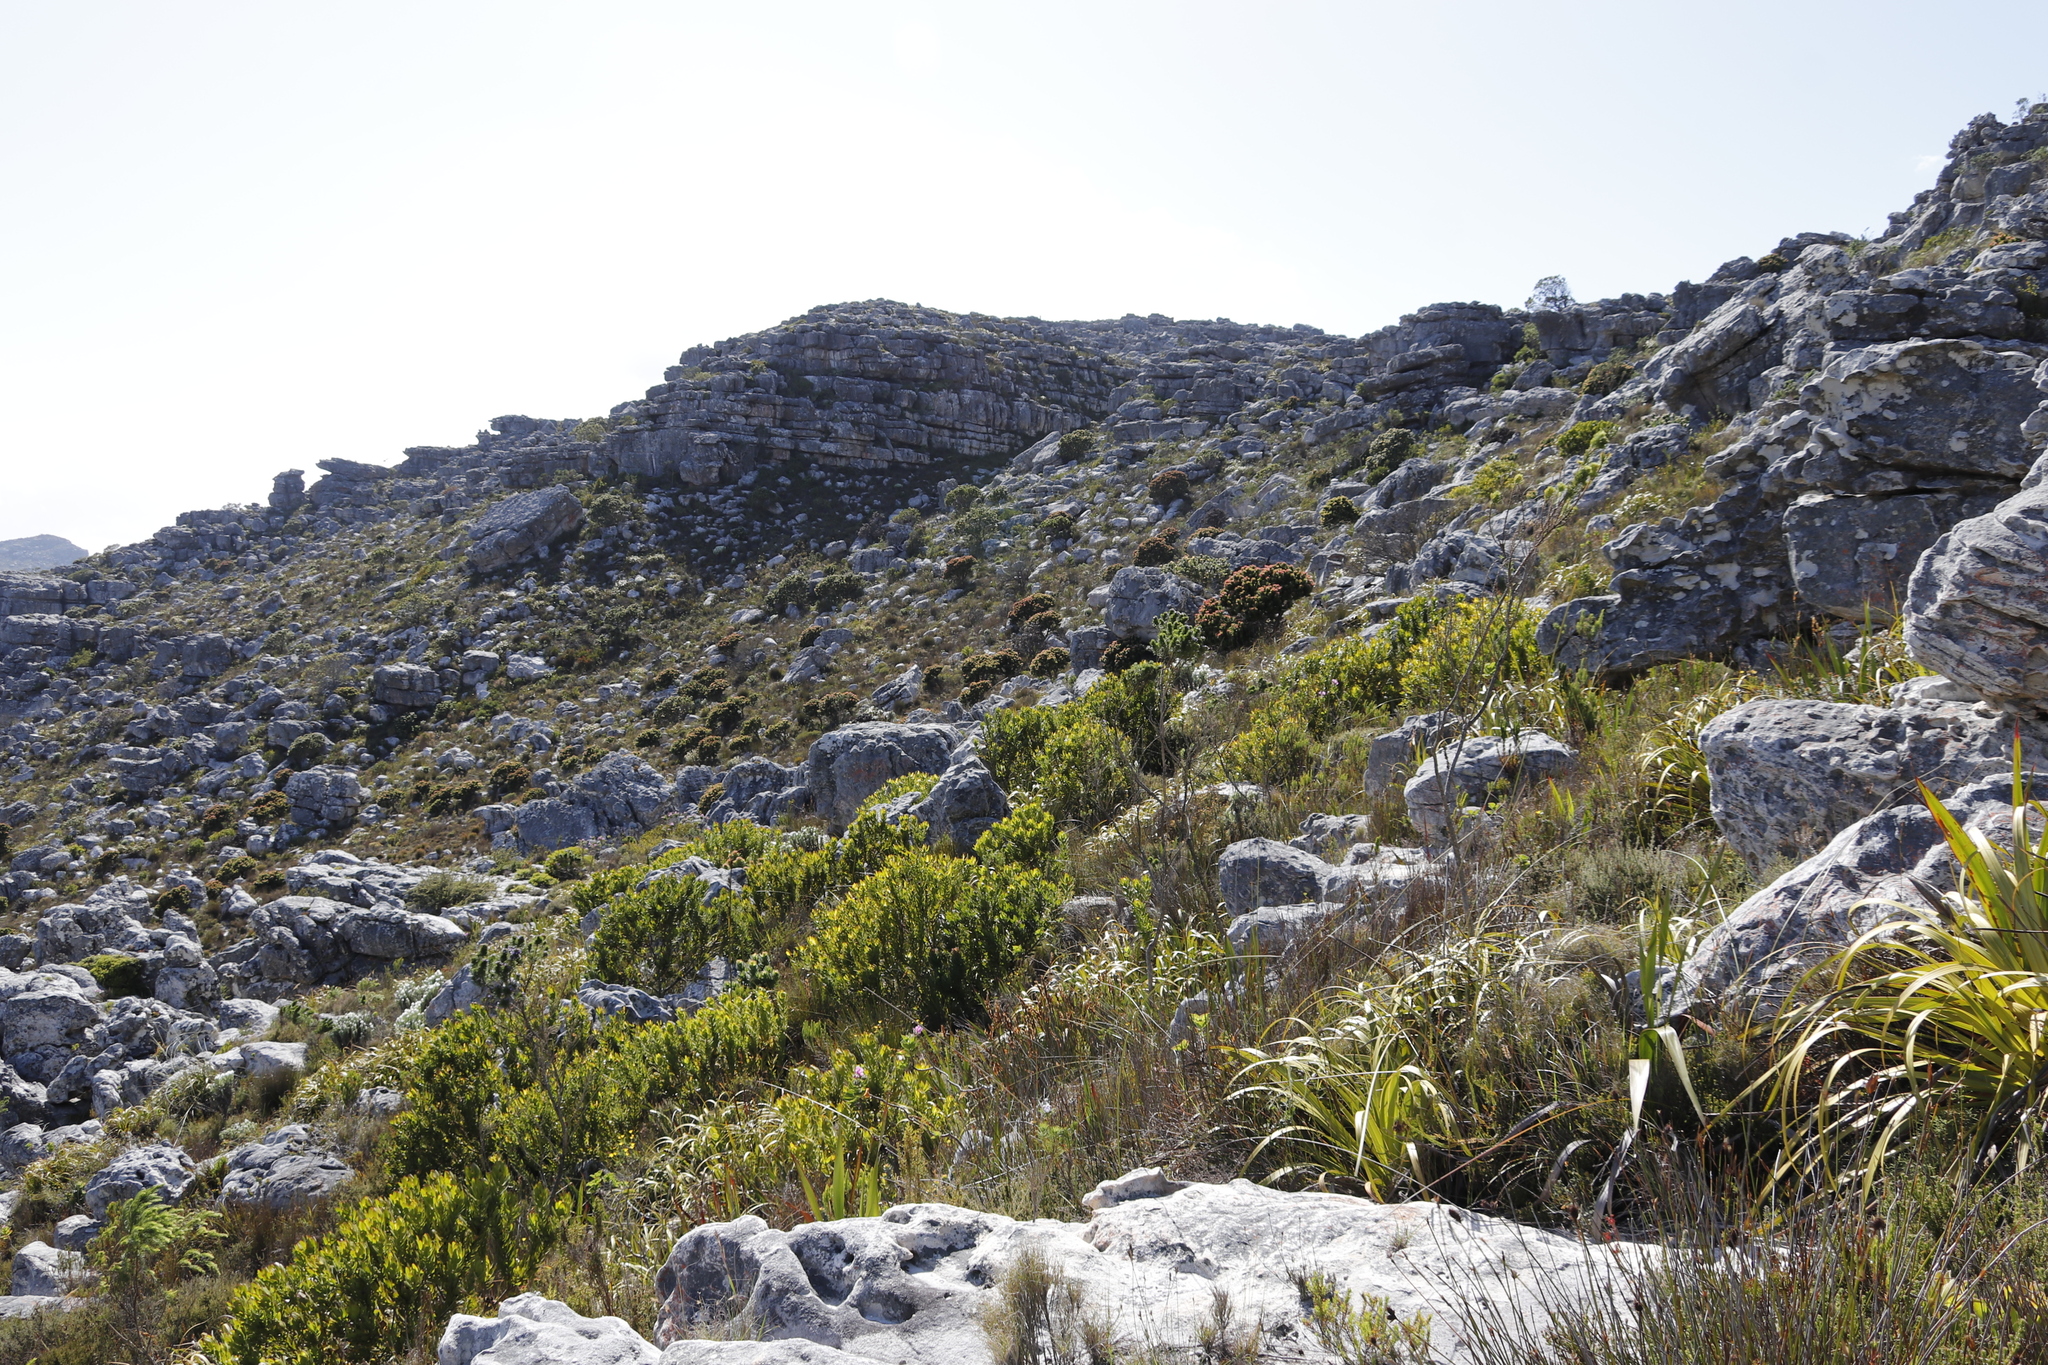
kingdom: Plantae
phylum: Tracheophyta
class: Magnoliopsida
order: Proteales
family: Proteaceae
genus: Leucadendron
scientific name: Leucadendron laureolum
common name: Golden sunshinebush
